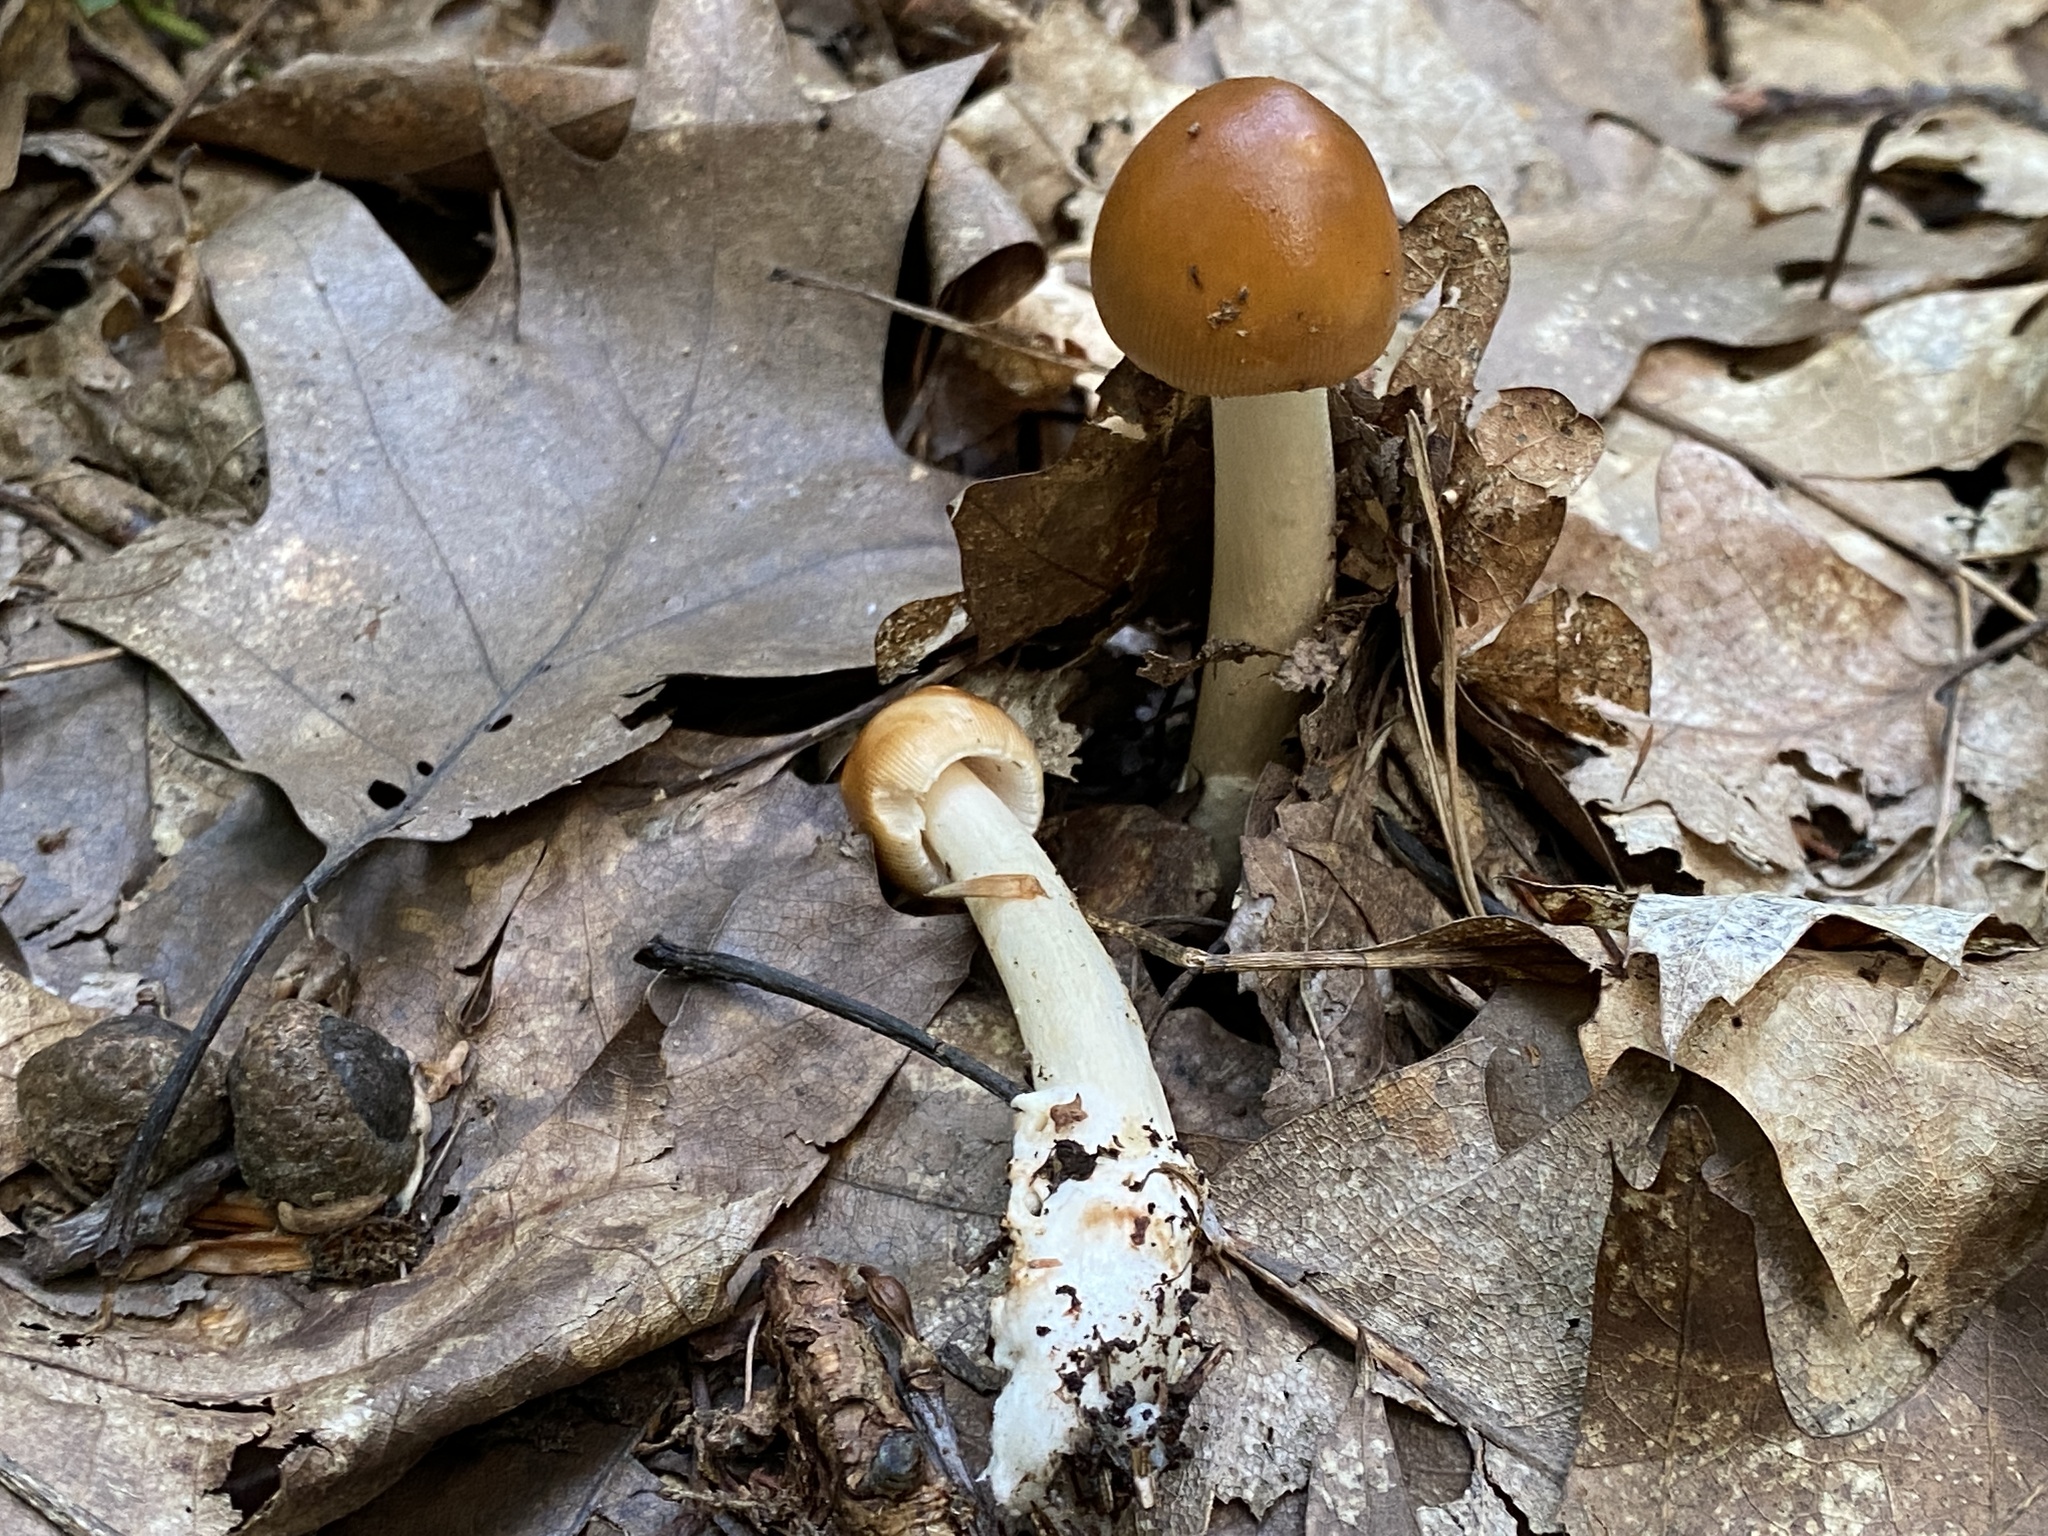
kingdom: Fungi
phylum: Basidiomycota
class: Agaricomycetes
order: Agaricales
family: Amanitaceae
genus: Amanita
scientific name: Amanita fulva
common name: Tawny grisette
